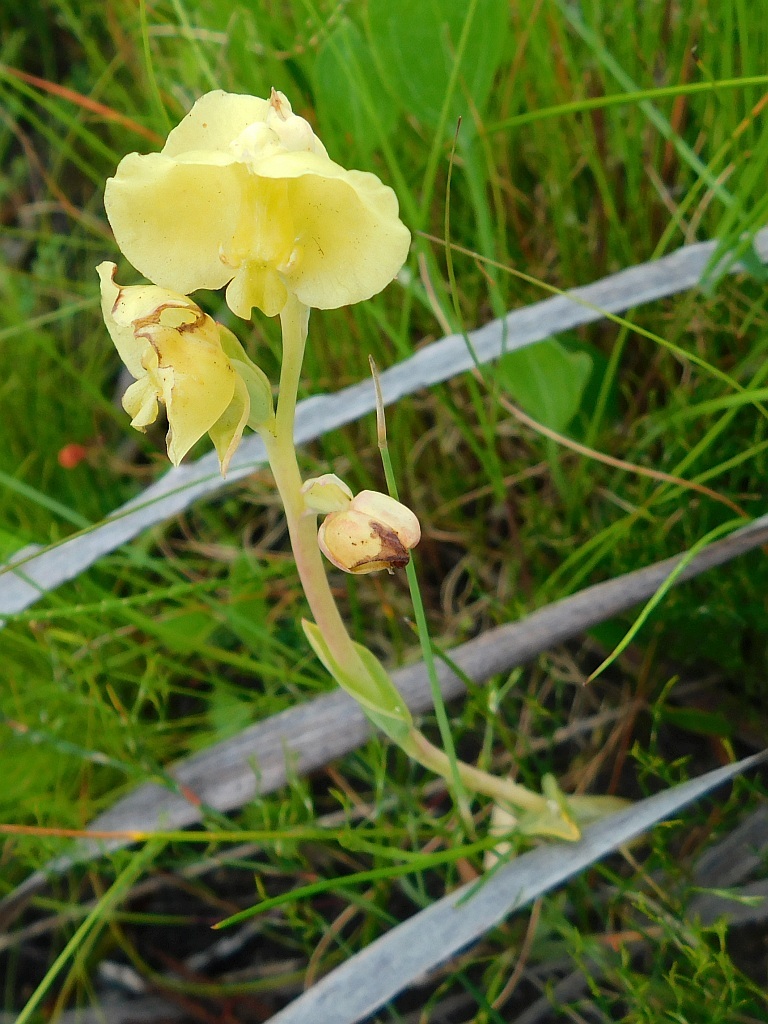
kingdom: Plantae
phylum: Tracheophyta
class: Liliopsida
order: Asparagales
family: Orchidaceae
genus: Pterygodium
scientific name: Pterygodium platypetalum
